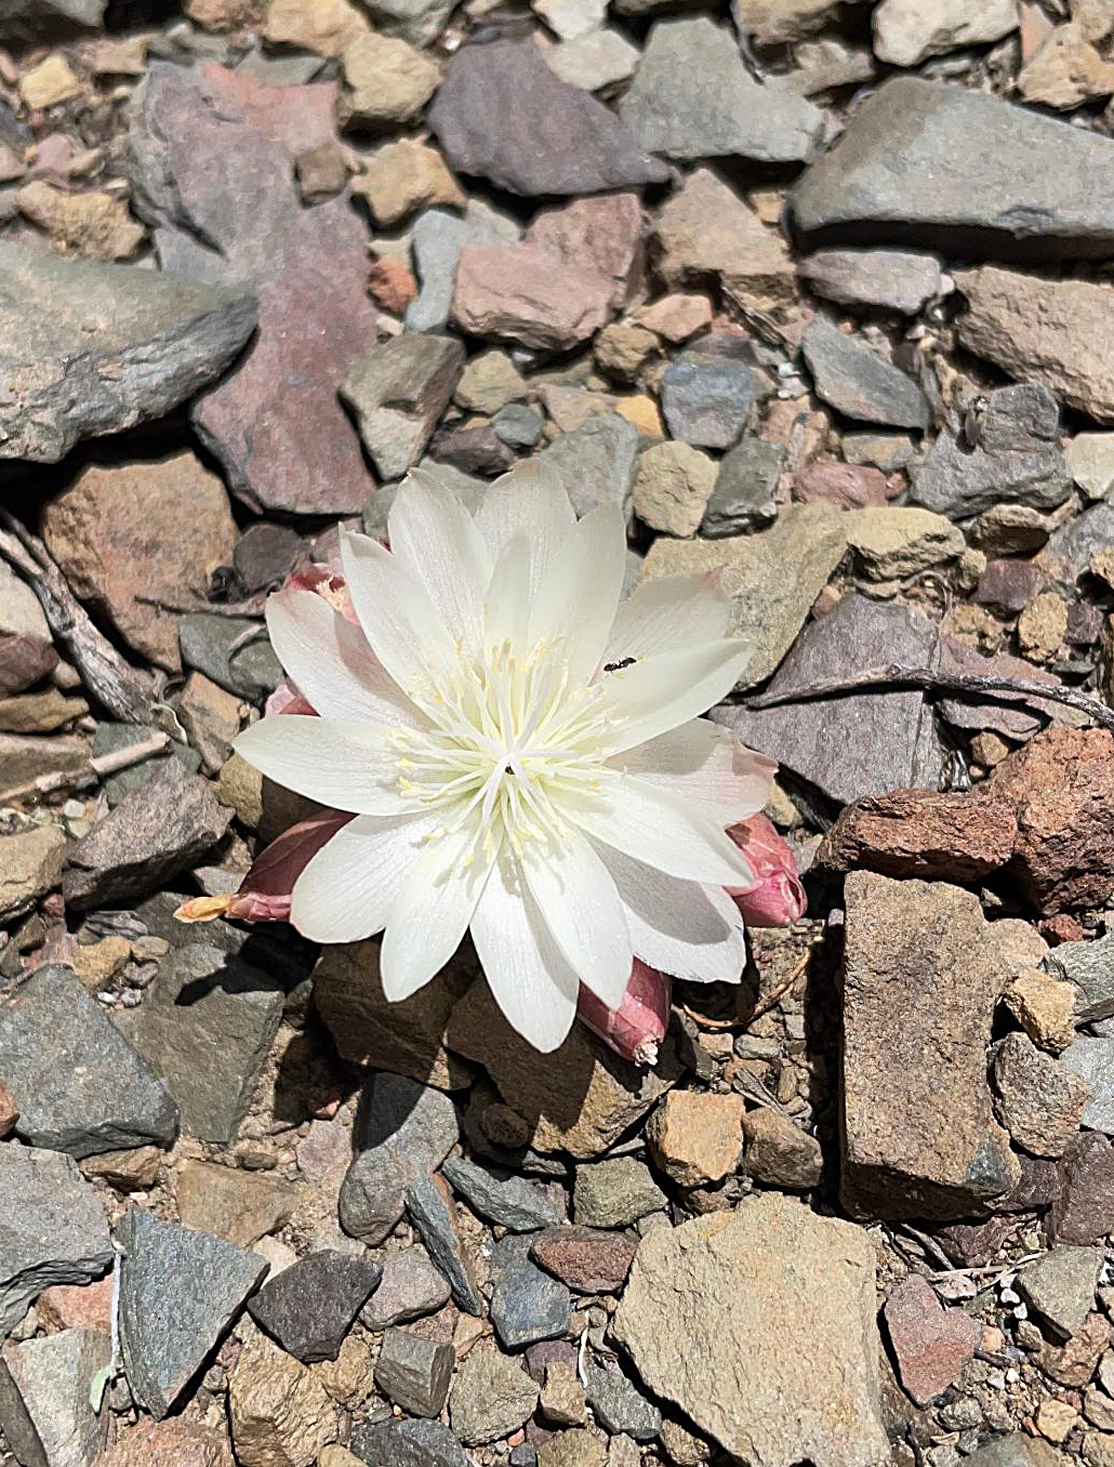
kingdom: Plantae
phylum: Tracheophyta
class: Magnoliopsida
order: Caryophyllales
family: Montiaceae
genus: Lewisia
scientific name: Lewisia rediviva
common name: Bitter-root
